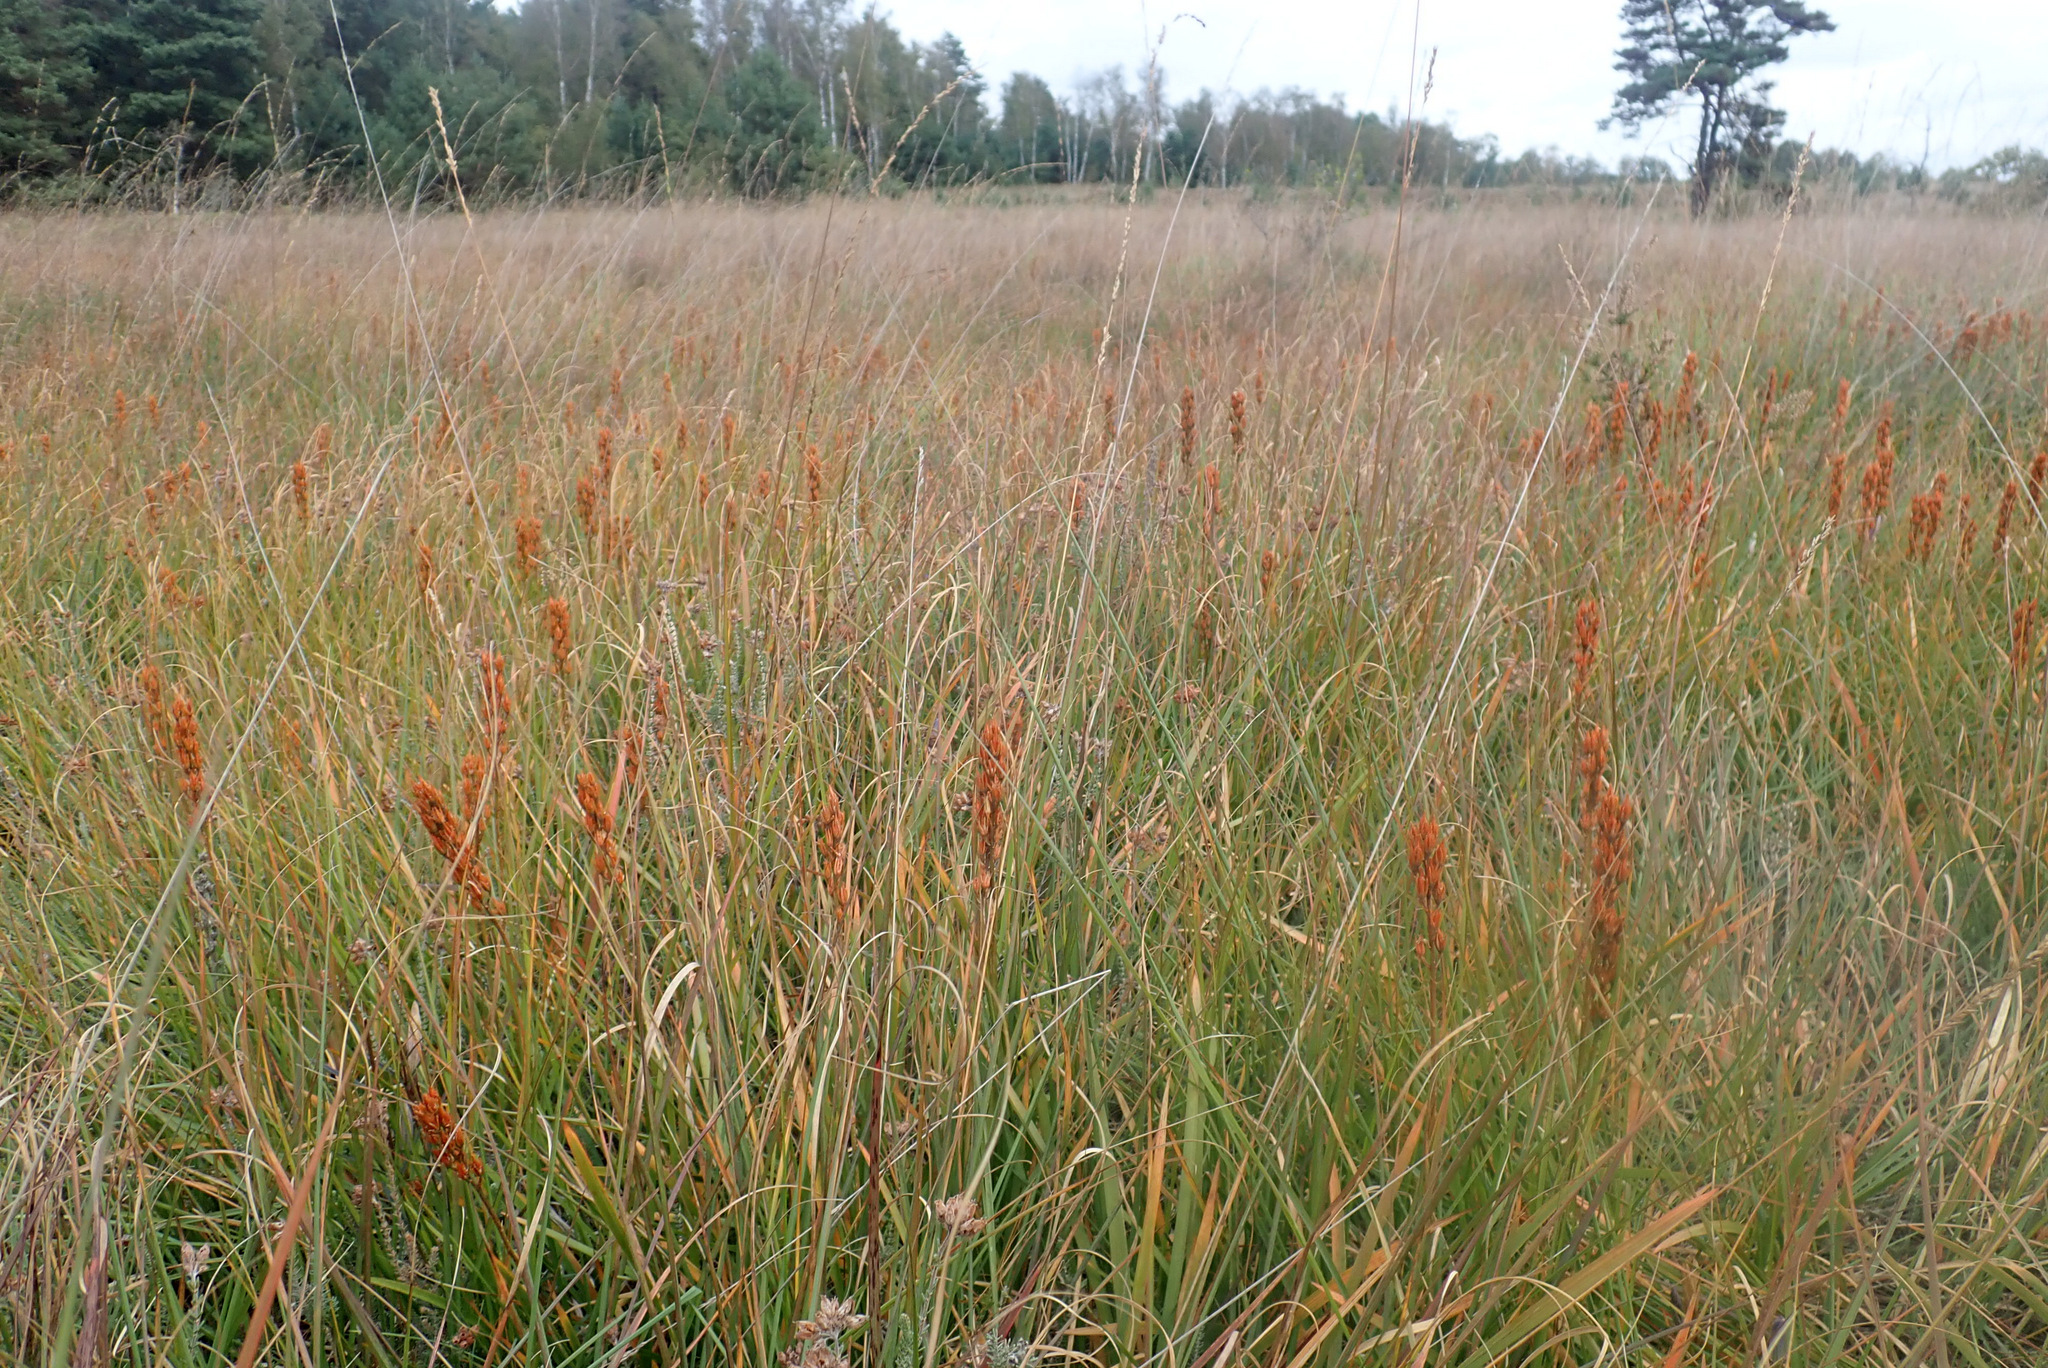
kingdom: Plantae
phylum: Tracheophyta
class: Liliopsida
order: Dioscoreales
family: Nartheciaceae
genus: Narthecium
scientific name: Narthecium ossifragum
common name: Bog asphodel
